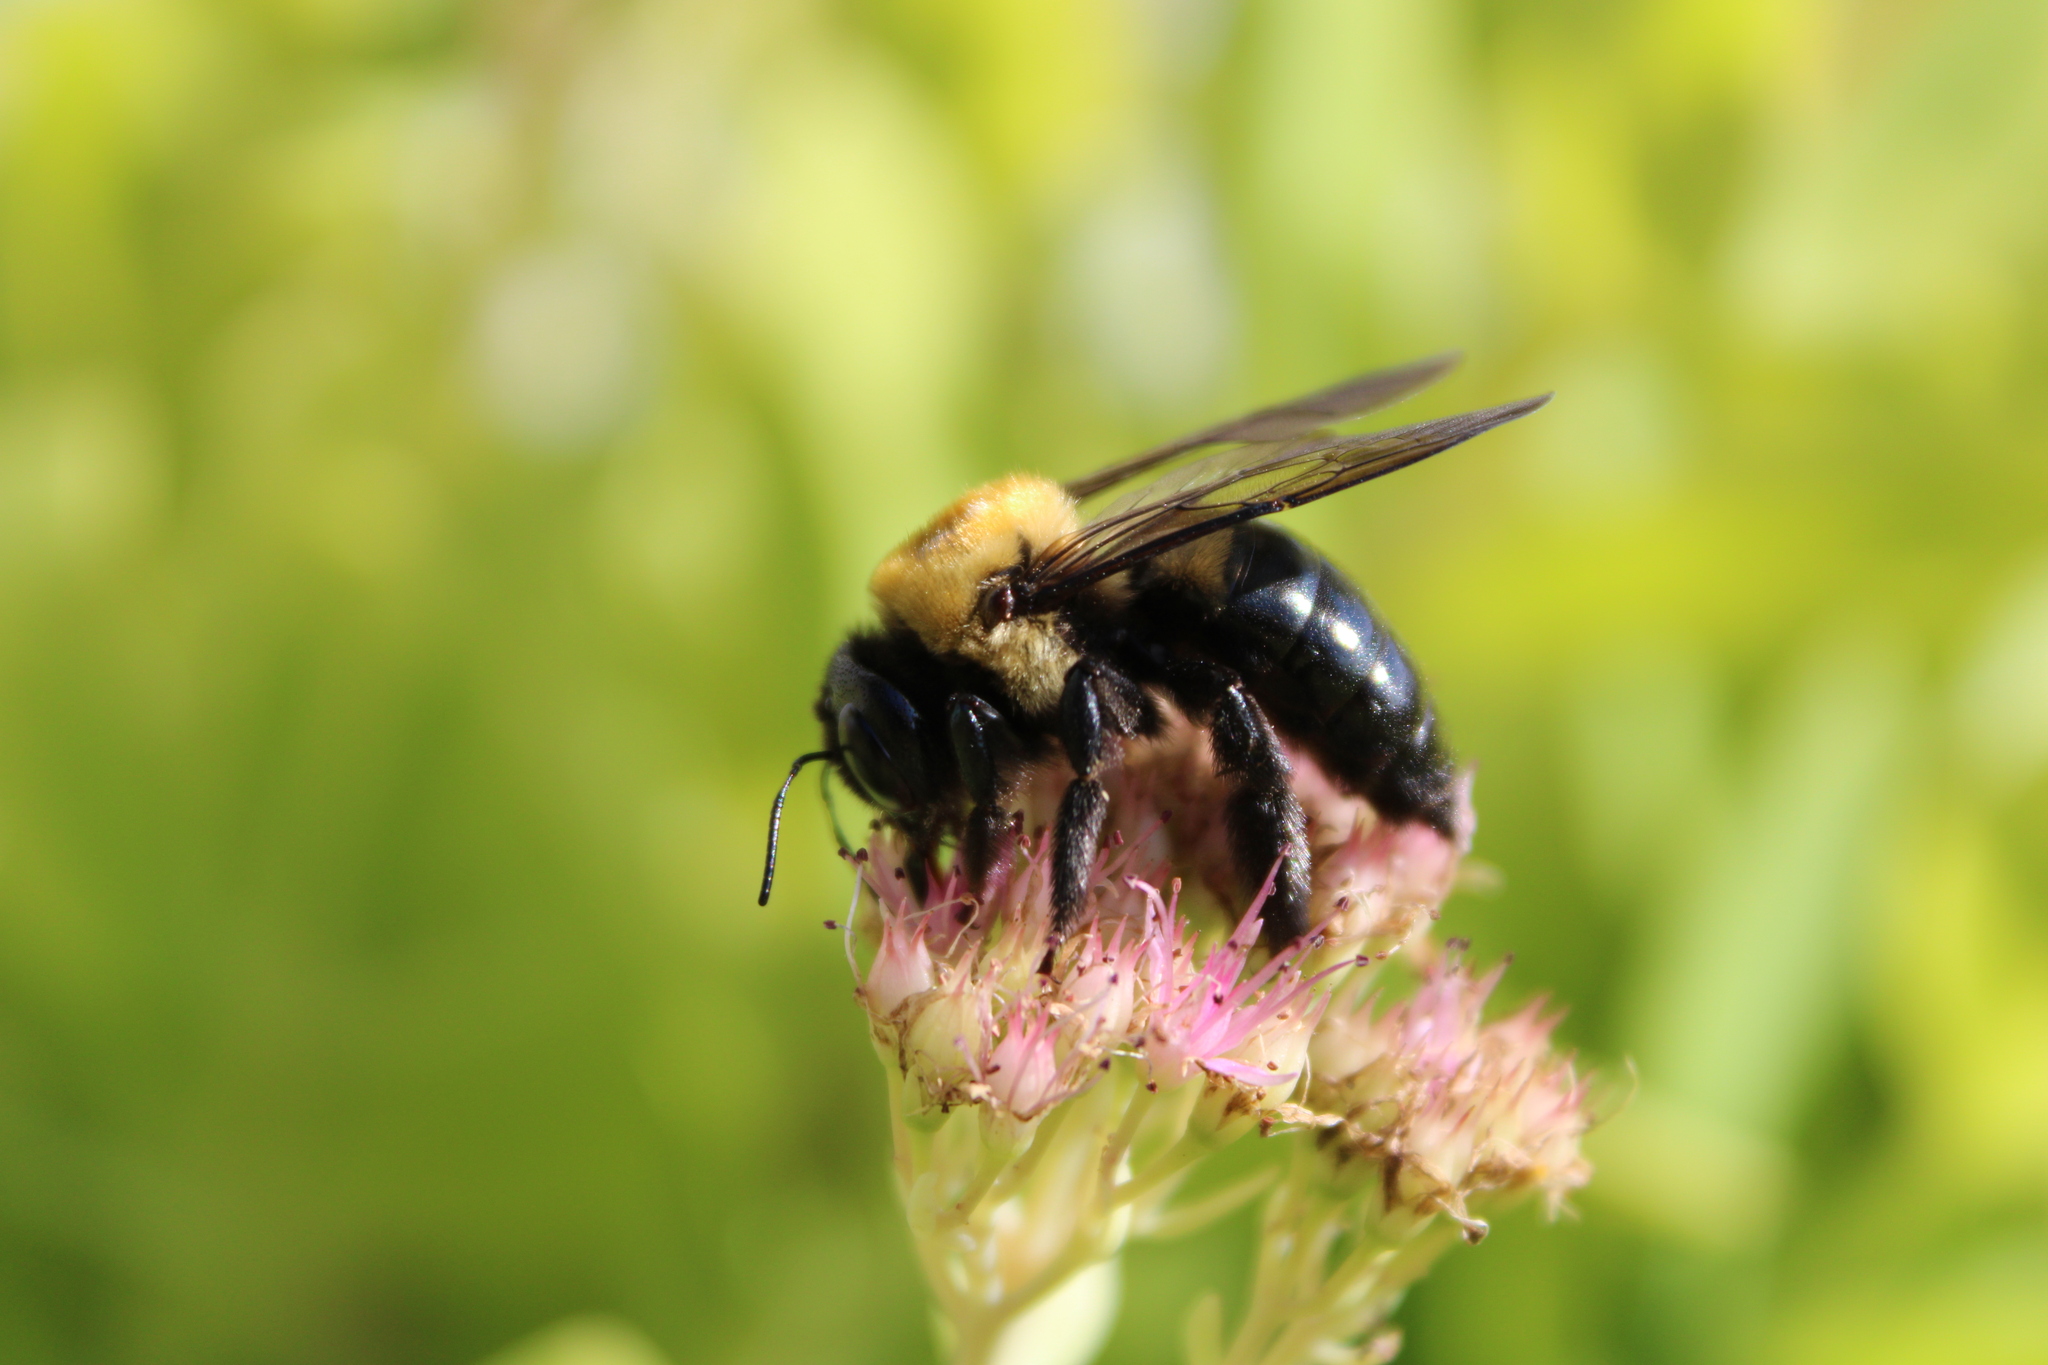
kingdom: Animalia
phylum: Arthropoda
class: Insecta
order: Hymenoptera
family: Apidae
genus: Xylocopa
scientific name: Xylocopa virginica
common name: Carpenter bee
